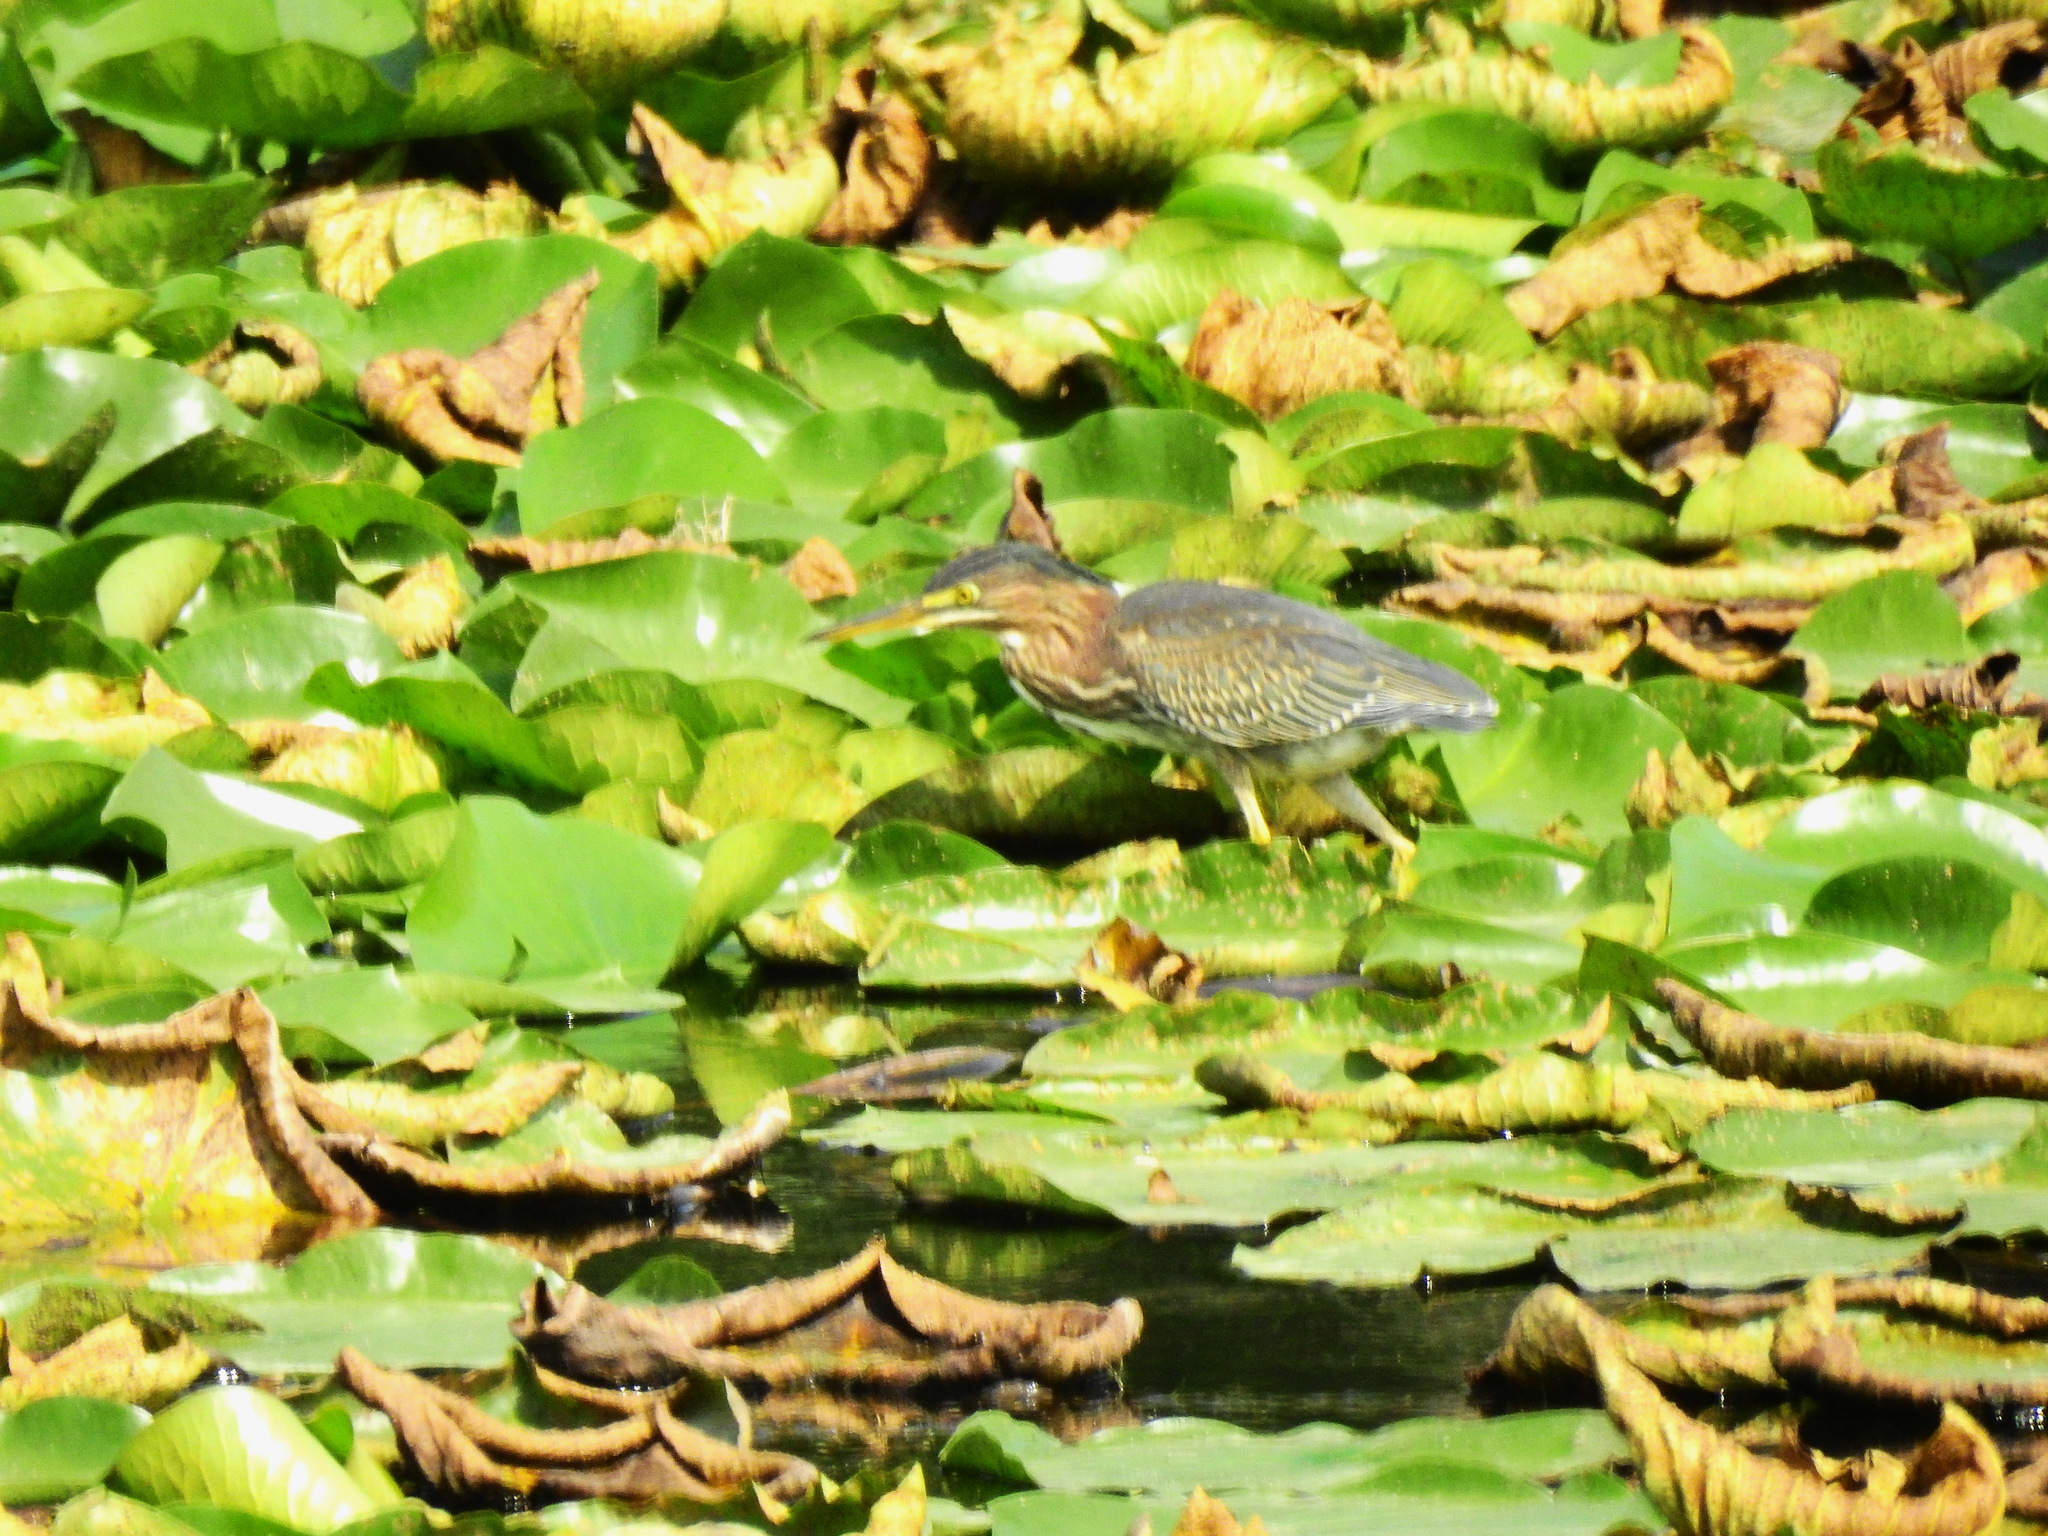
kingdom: Animalia
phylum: Chordata
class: Aves
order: Pelecaniformes
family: Ardeidae
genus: Butorides
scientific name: Butorides virescens
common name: Green heron
